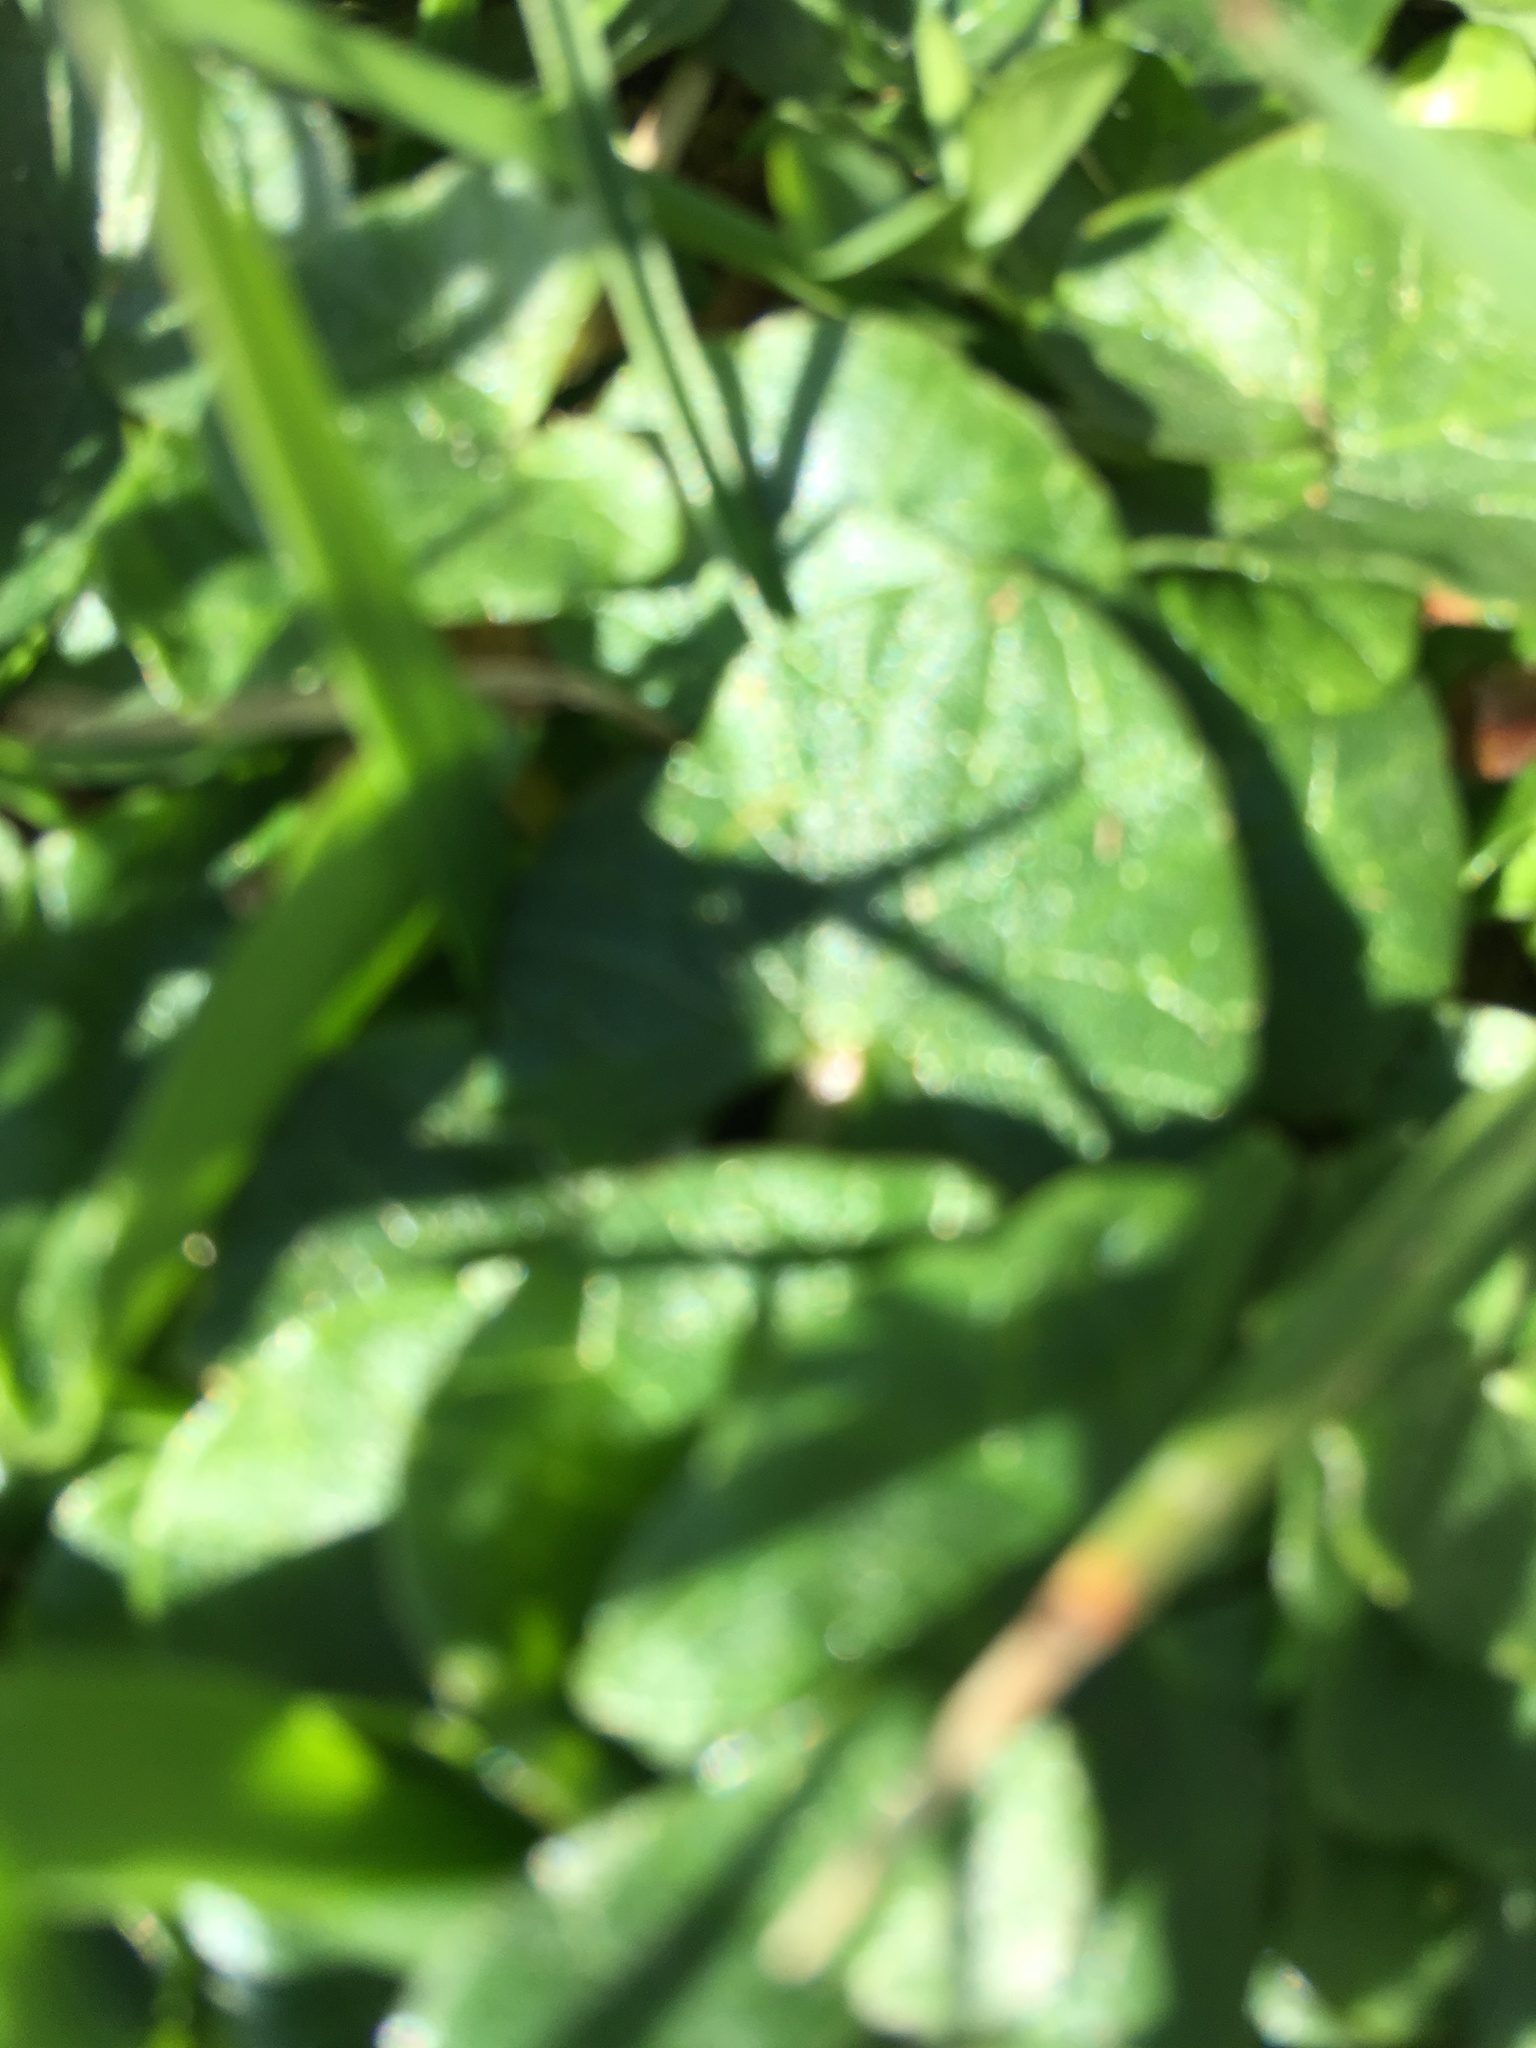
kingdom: Plantae
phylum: Tracheophyta
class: Magnoliopsida
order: Ranunculales
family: Ranunculaceae
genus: Ficaria
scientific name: Ficaria verna
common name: Lesser celandine
